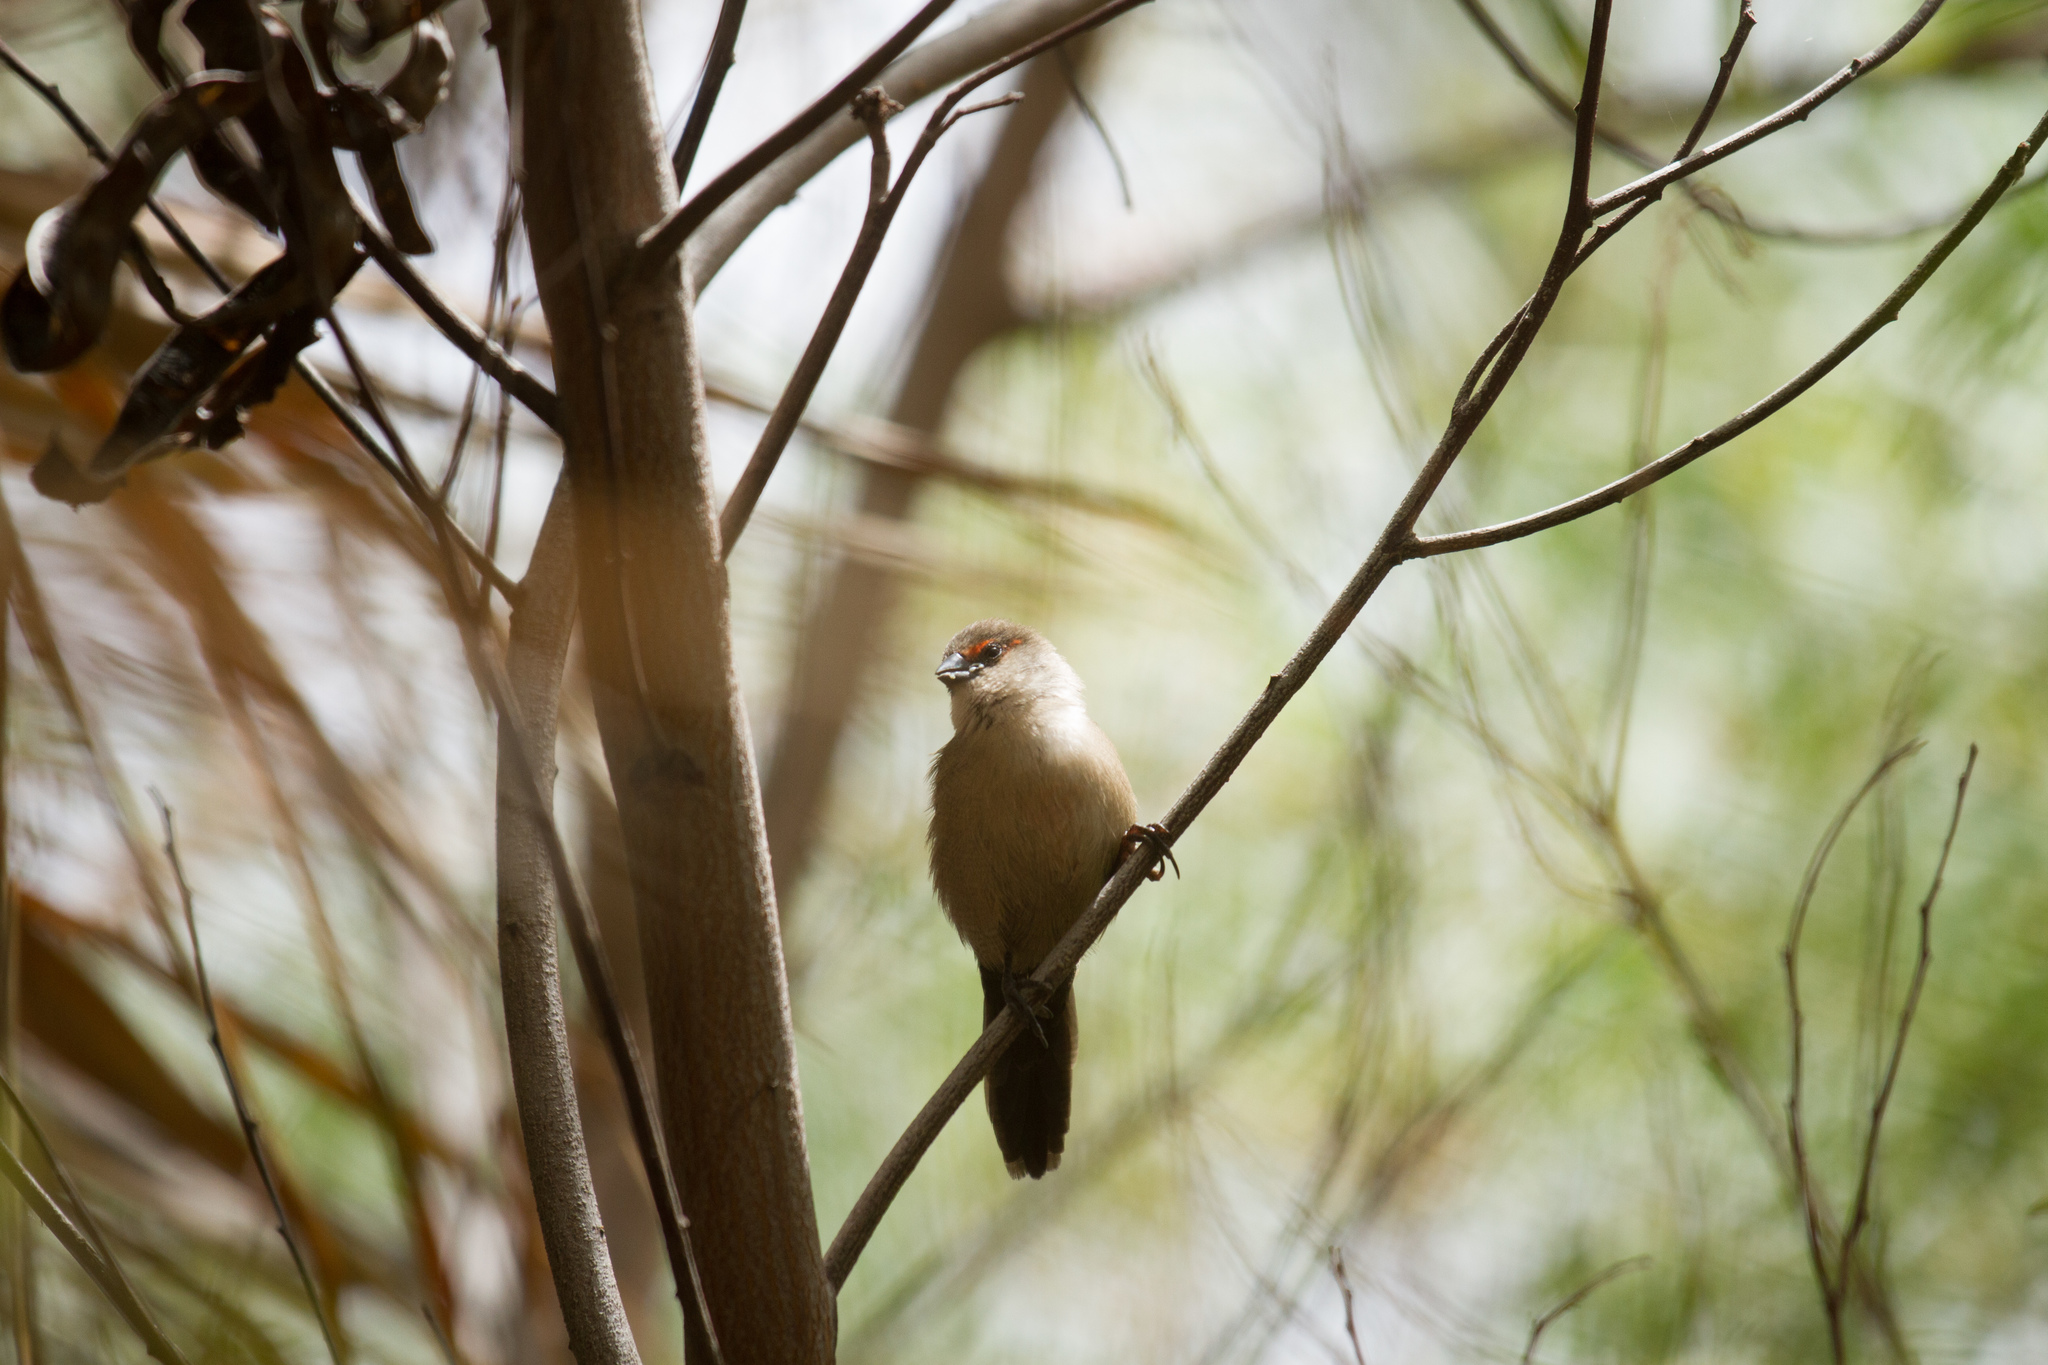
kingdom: Animalia
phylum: Chordata
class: Aves
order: Passeriformes
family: Estrildidae
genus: Estrilda
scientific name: Estrilda astrild
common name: Common waxbill
